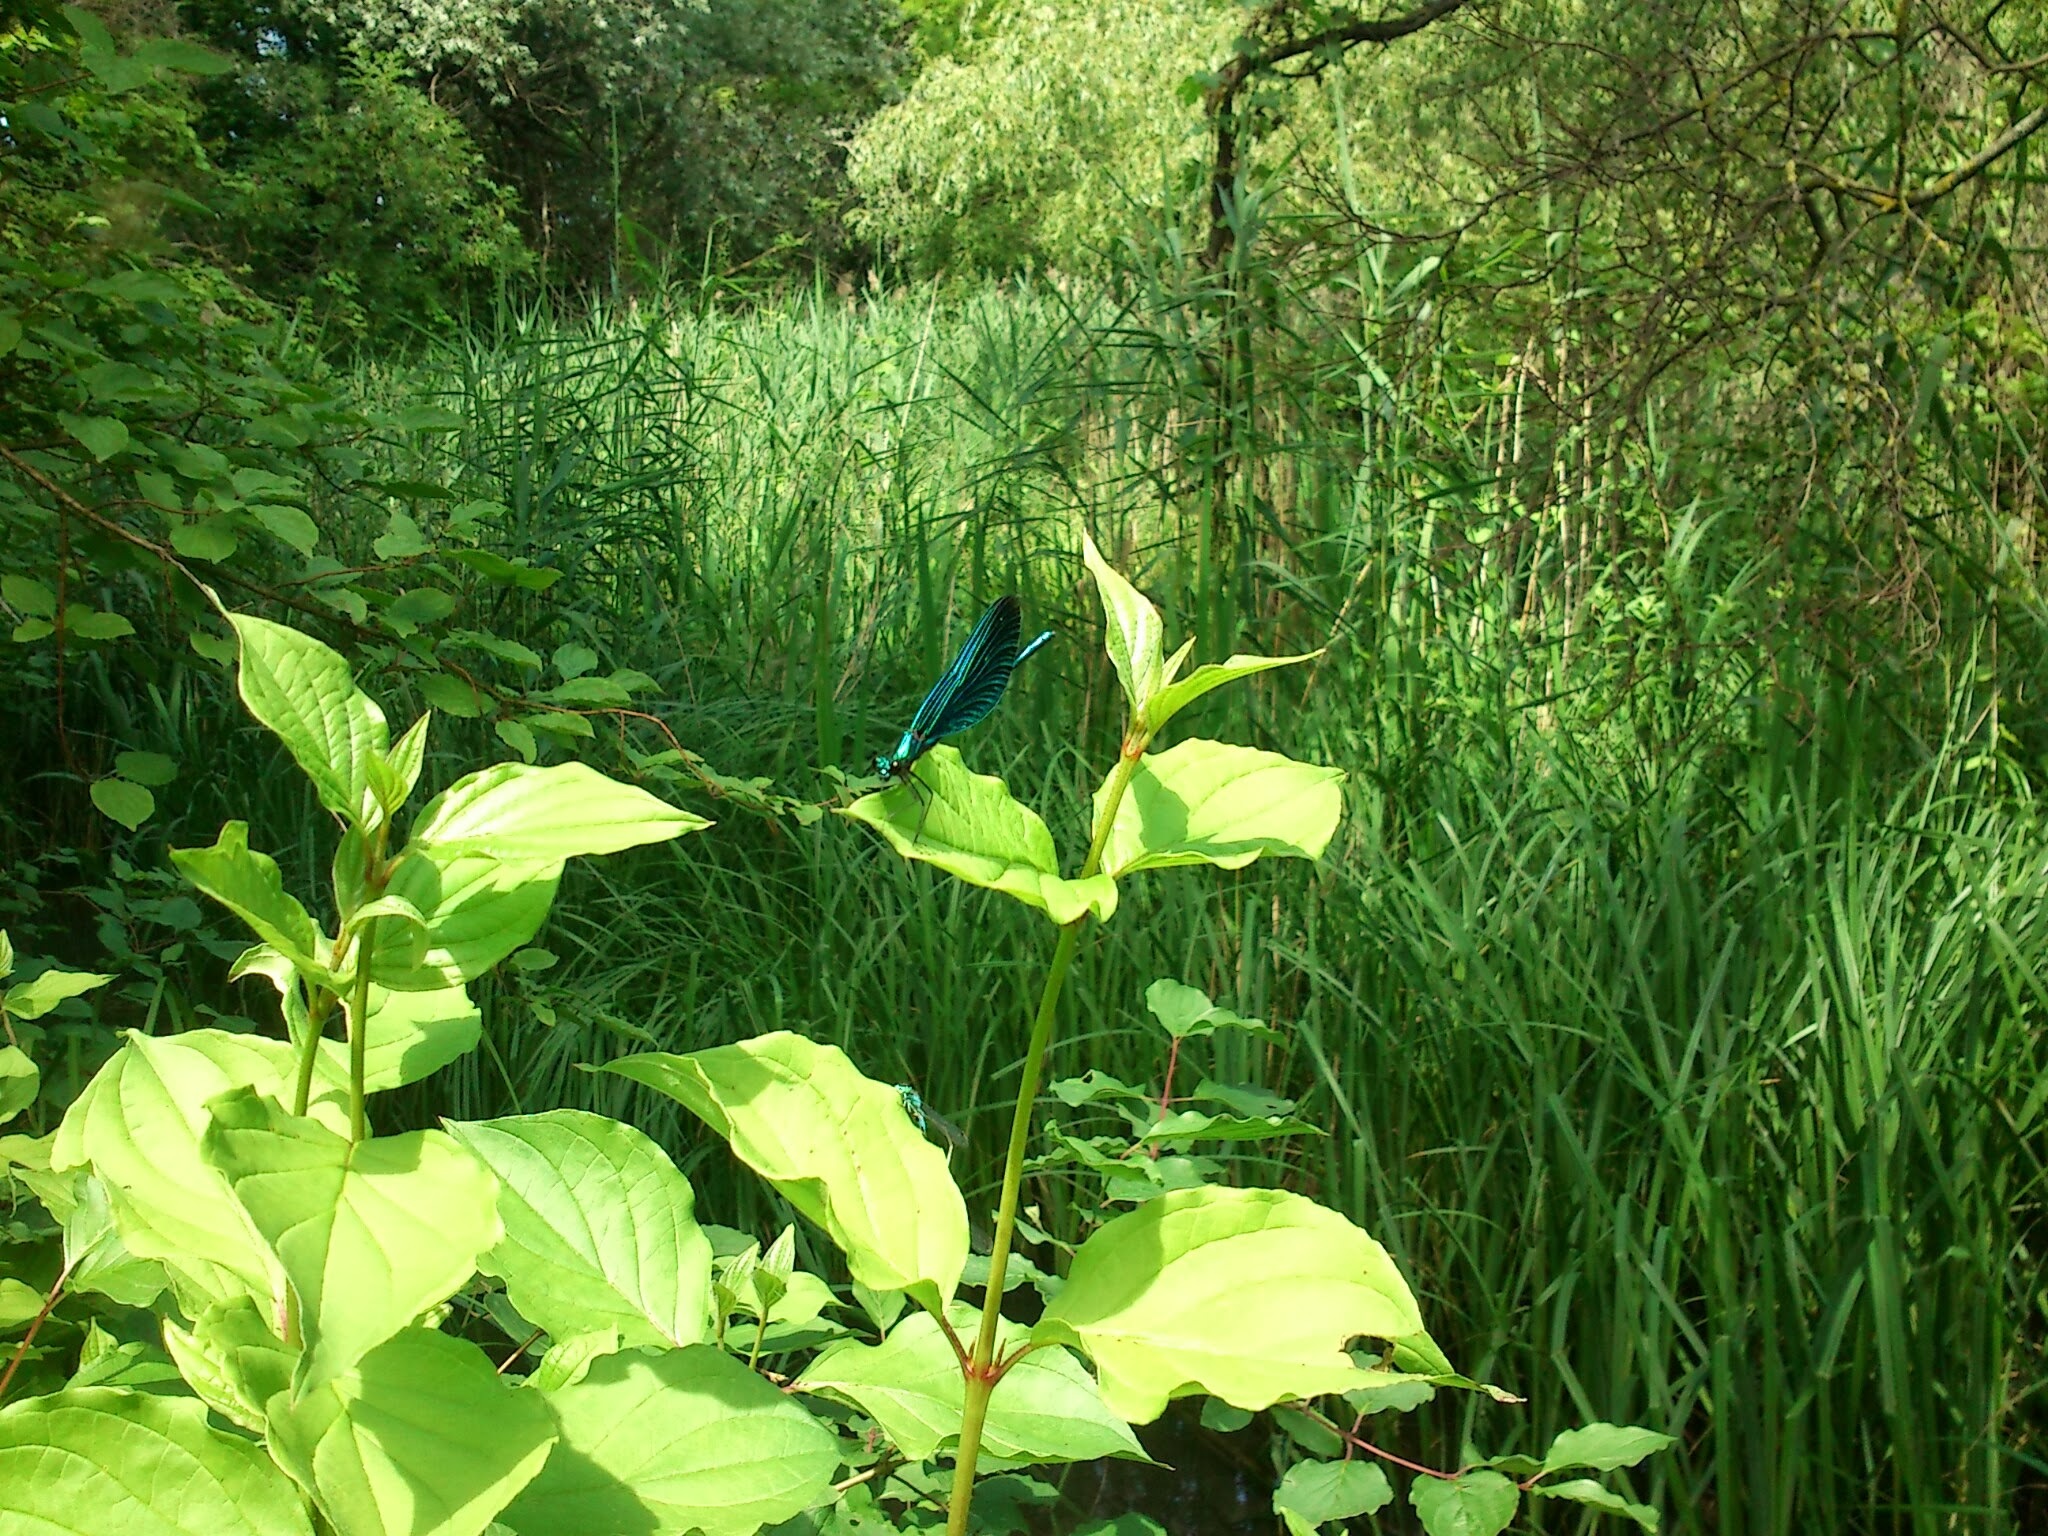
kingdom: Animalia
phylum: Arthropoda
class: Insecta
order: Odonata
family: Calopterygidae
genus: Calopteryx
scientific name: Calopteryx virgo
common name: Beautiful demoiselle
